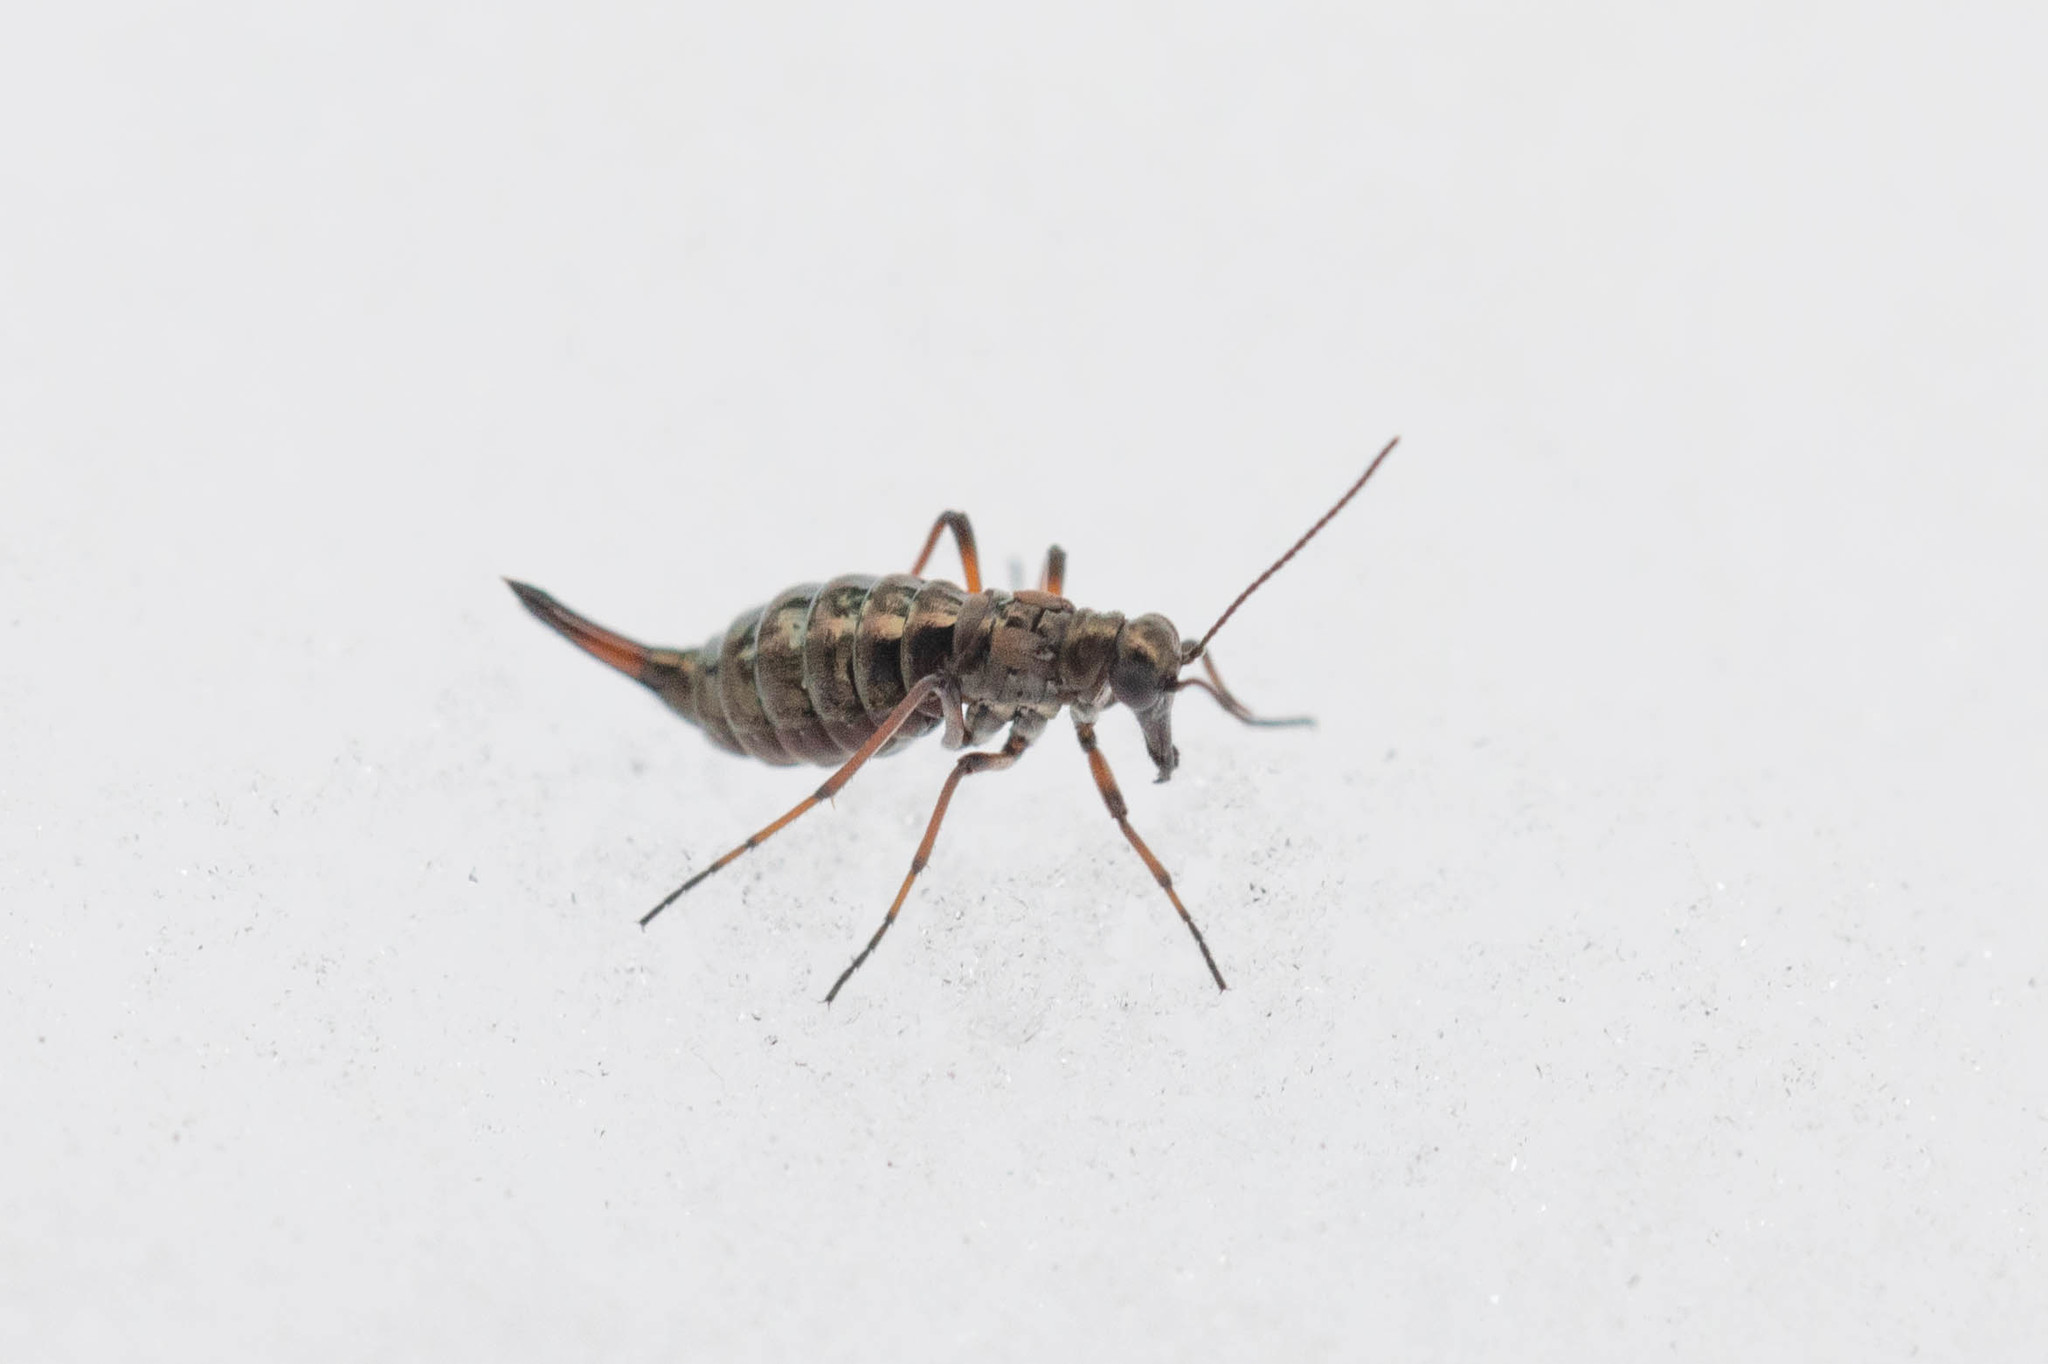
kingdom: Animalia
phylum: Arthropoda
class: Insecta
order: Mecoptera
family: Boreidae
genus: Boreus
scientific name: Boreus californicus
